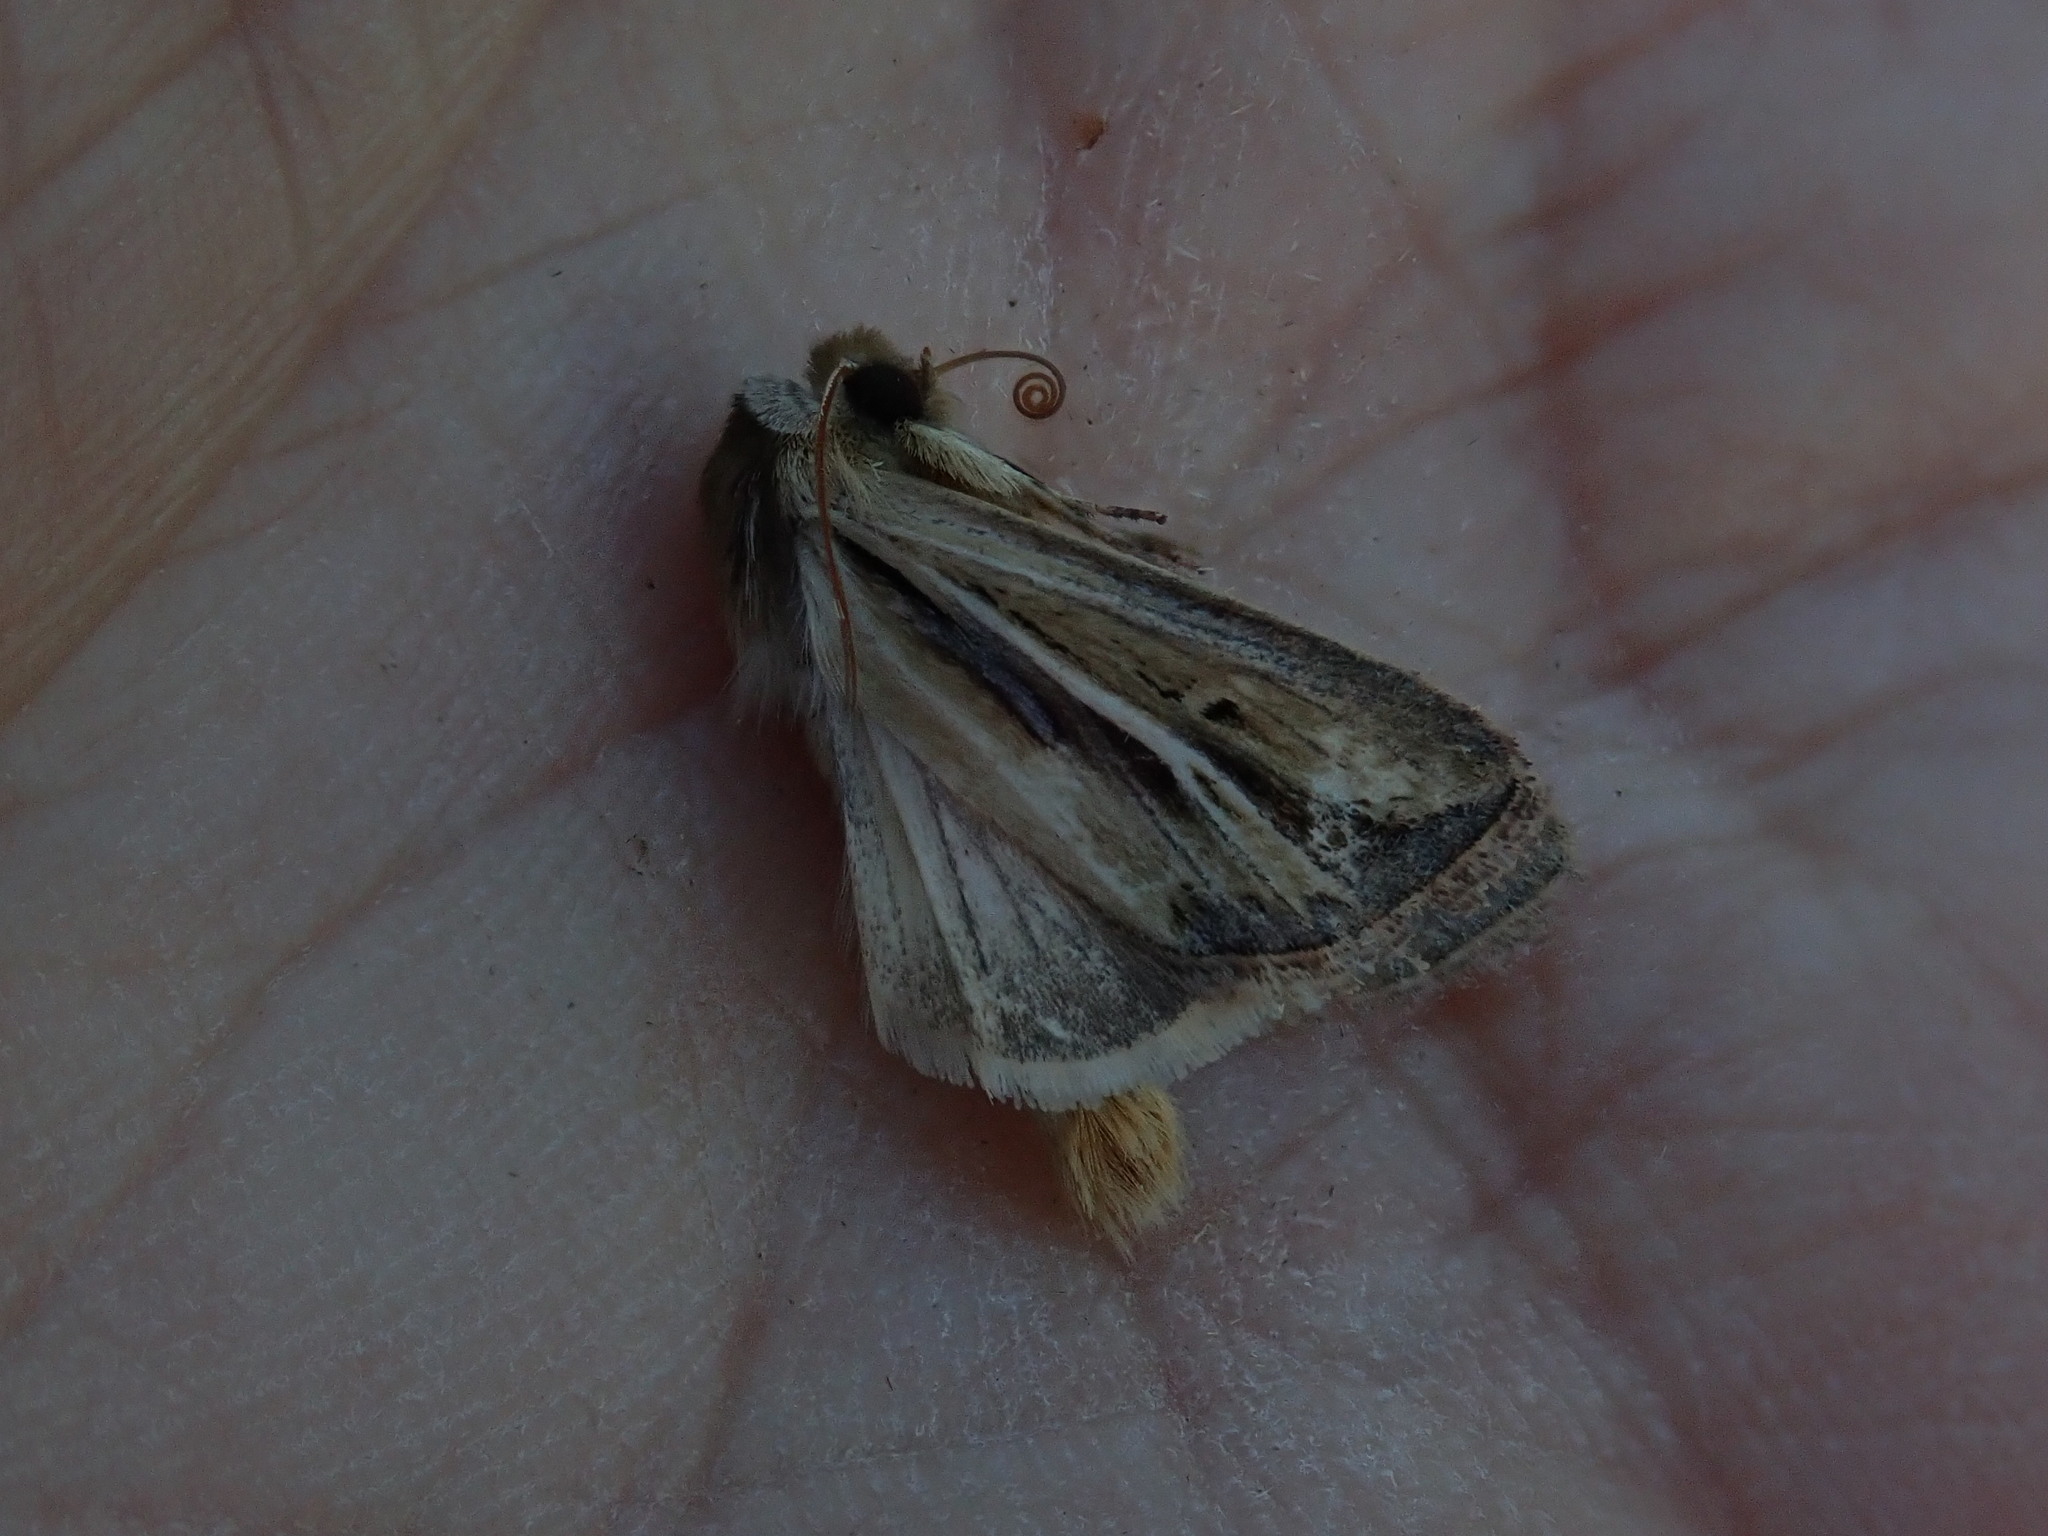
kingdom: Animalia
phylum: Arthropoda
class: Insecta
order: Lepidoptera
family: Noctuidae
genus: Dargida
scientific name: Dargida diffusa
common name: Wheat head armyworm
